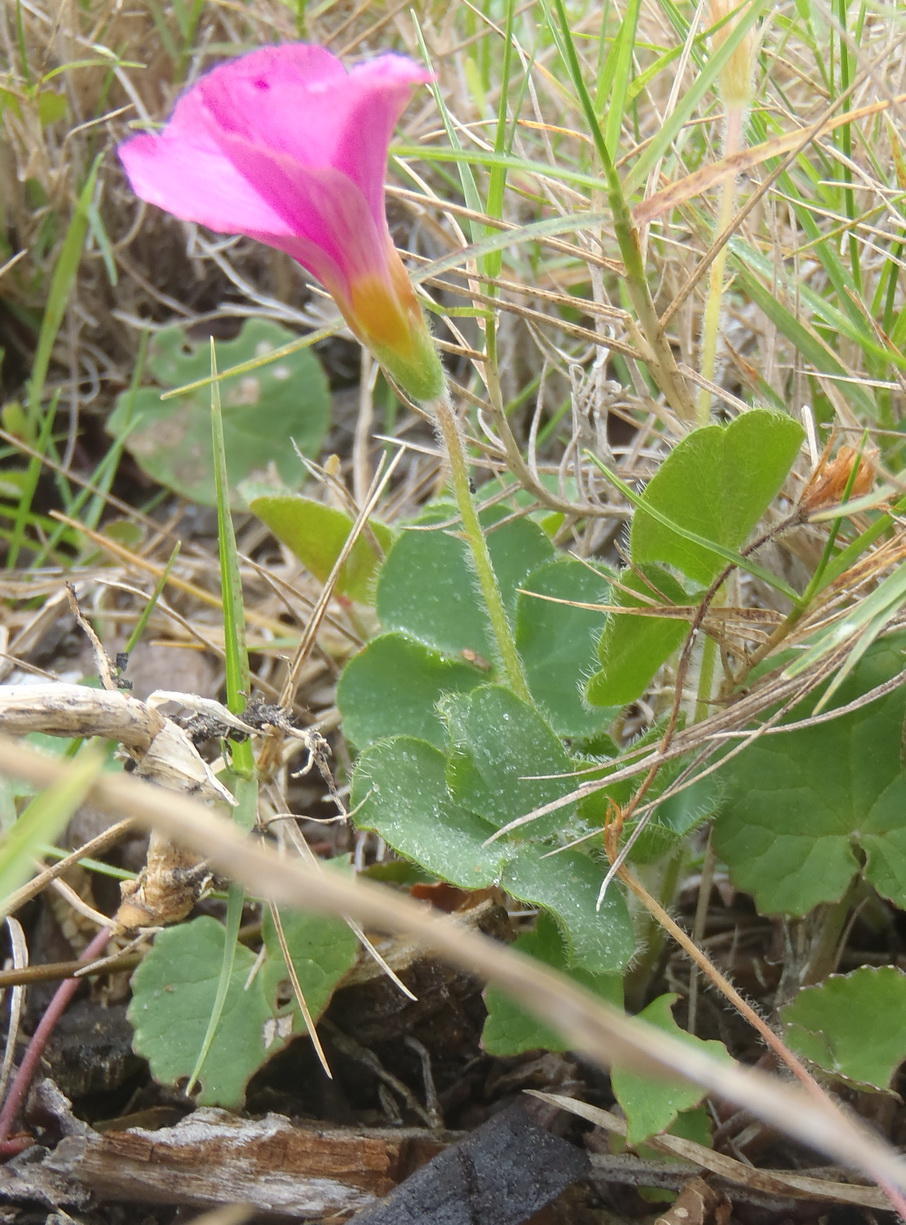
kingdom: Plantae
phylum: Tracheophyta
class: Magnoliopsida
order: Oxalidales
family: Oxalidaceae
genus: Oxalis
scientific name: Oxalis imbricata
